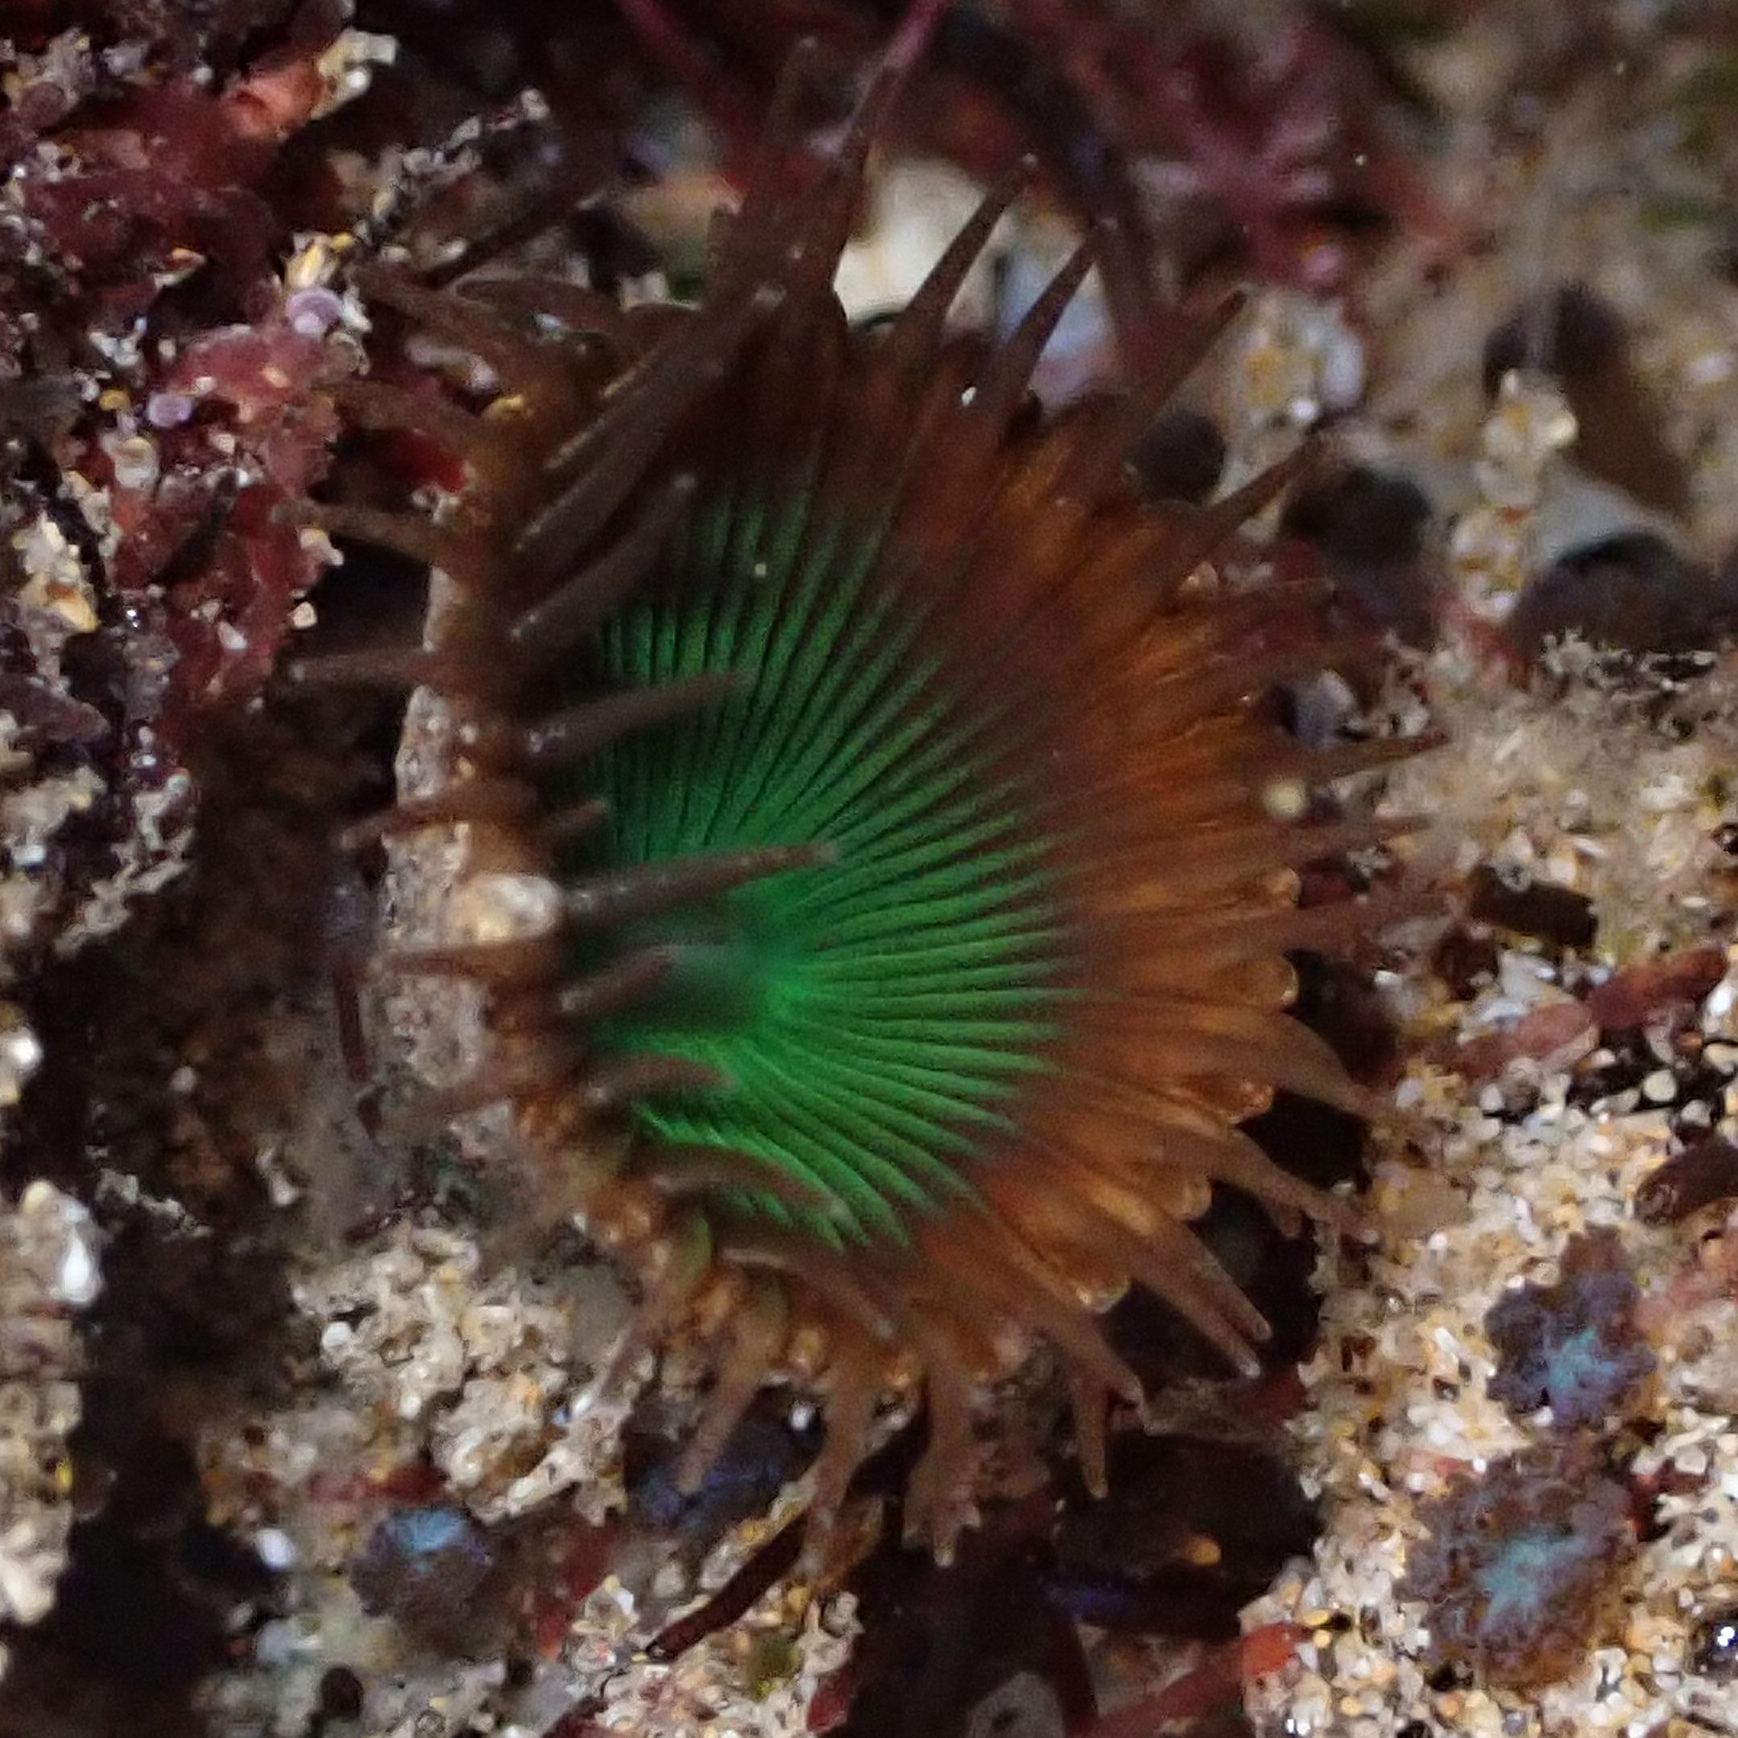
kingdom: Animalia
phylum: Cnidaria
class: Anthozoa
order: Zoantharia
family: Sphenopidae
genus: Palythoa
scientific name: Palythoa mutuki
